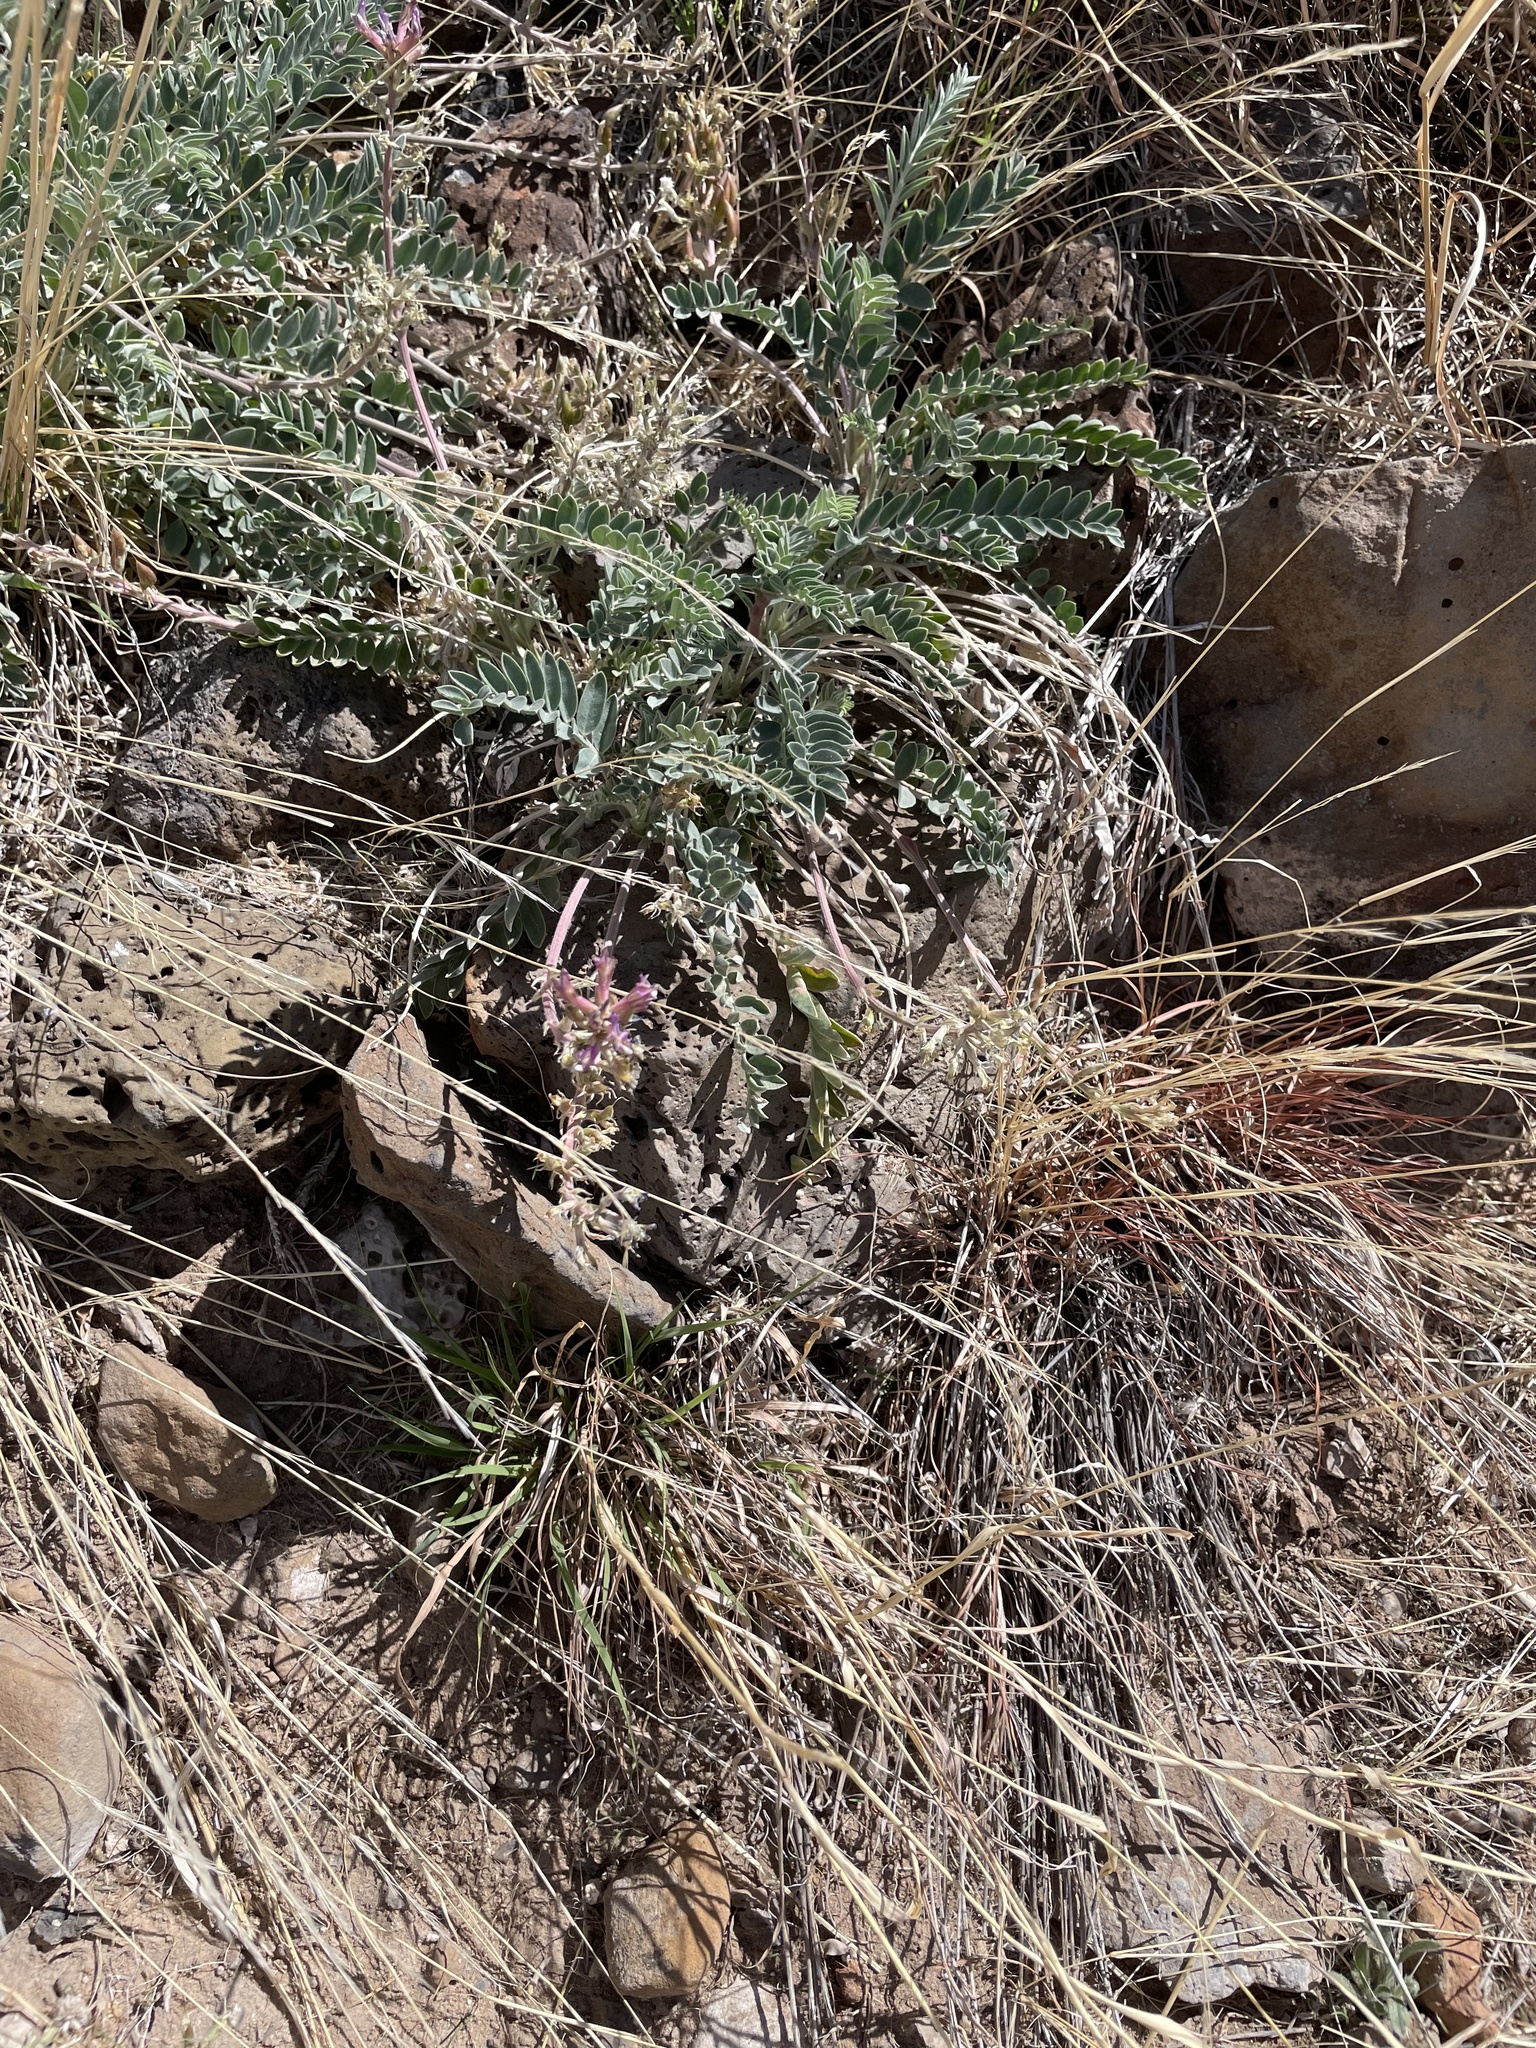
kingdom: Plantae
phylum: Tracheophyta
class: Magnoliopsida
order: Fabales
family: Fabaceae
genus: Astragalus
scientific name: Astragalus mollissimus
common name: Woolly locoweed
